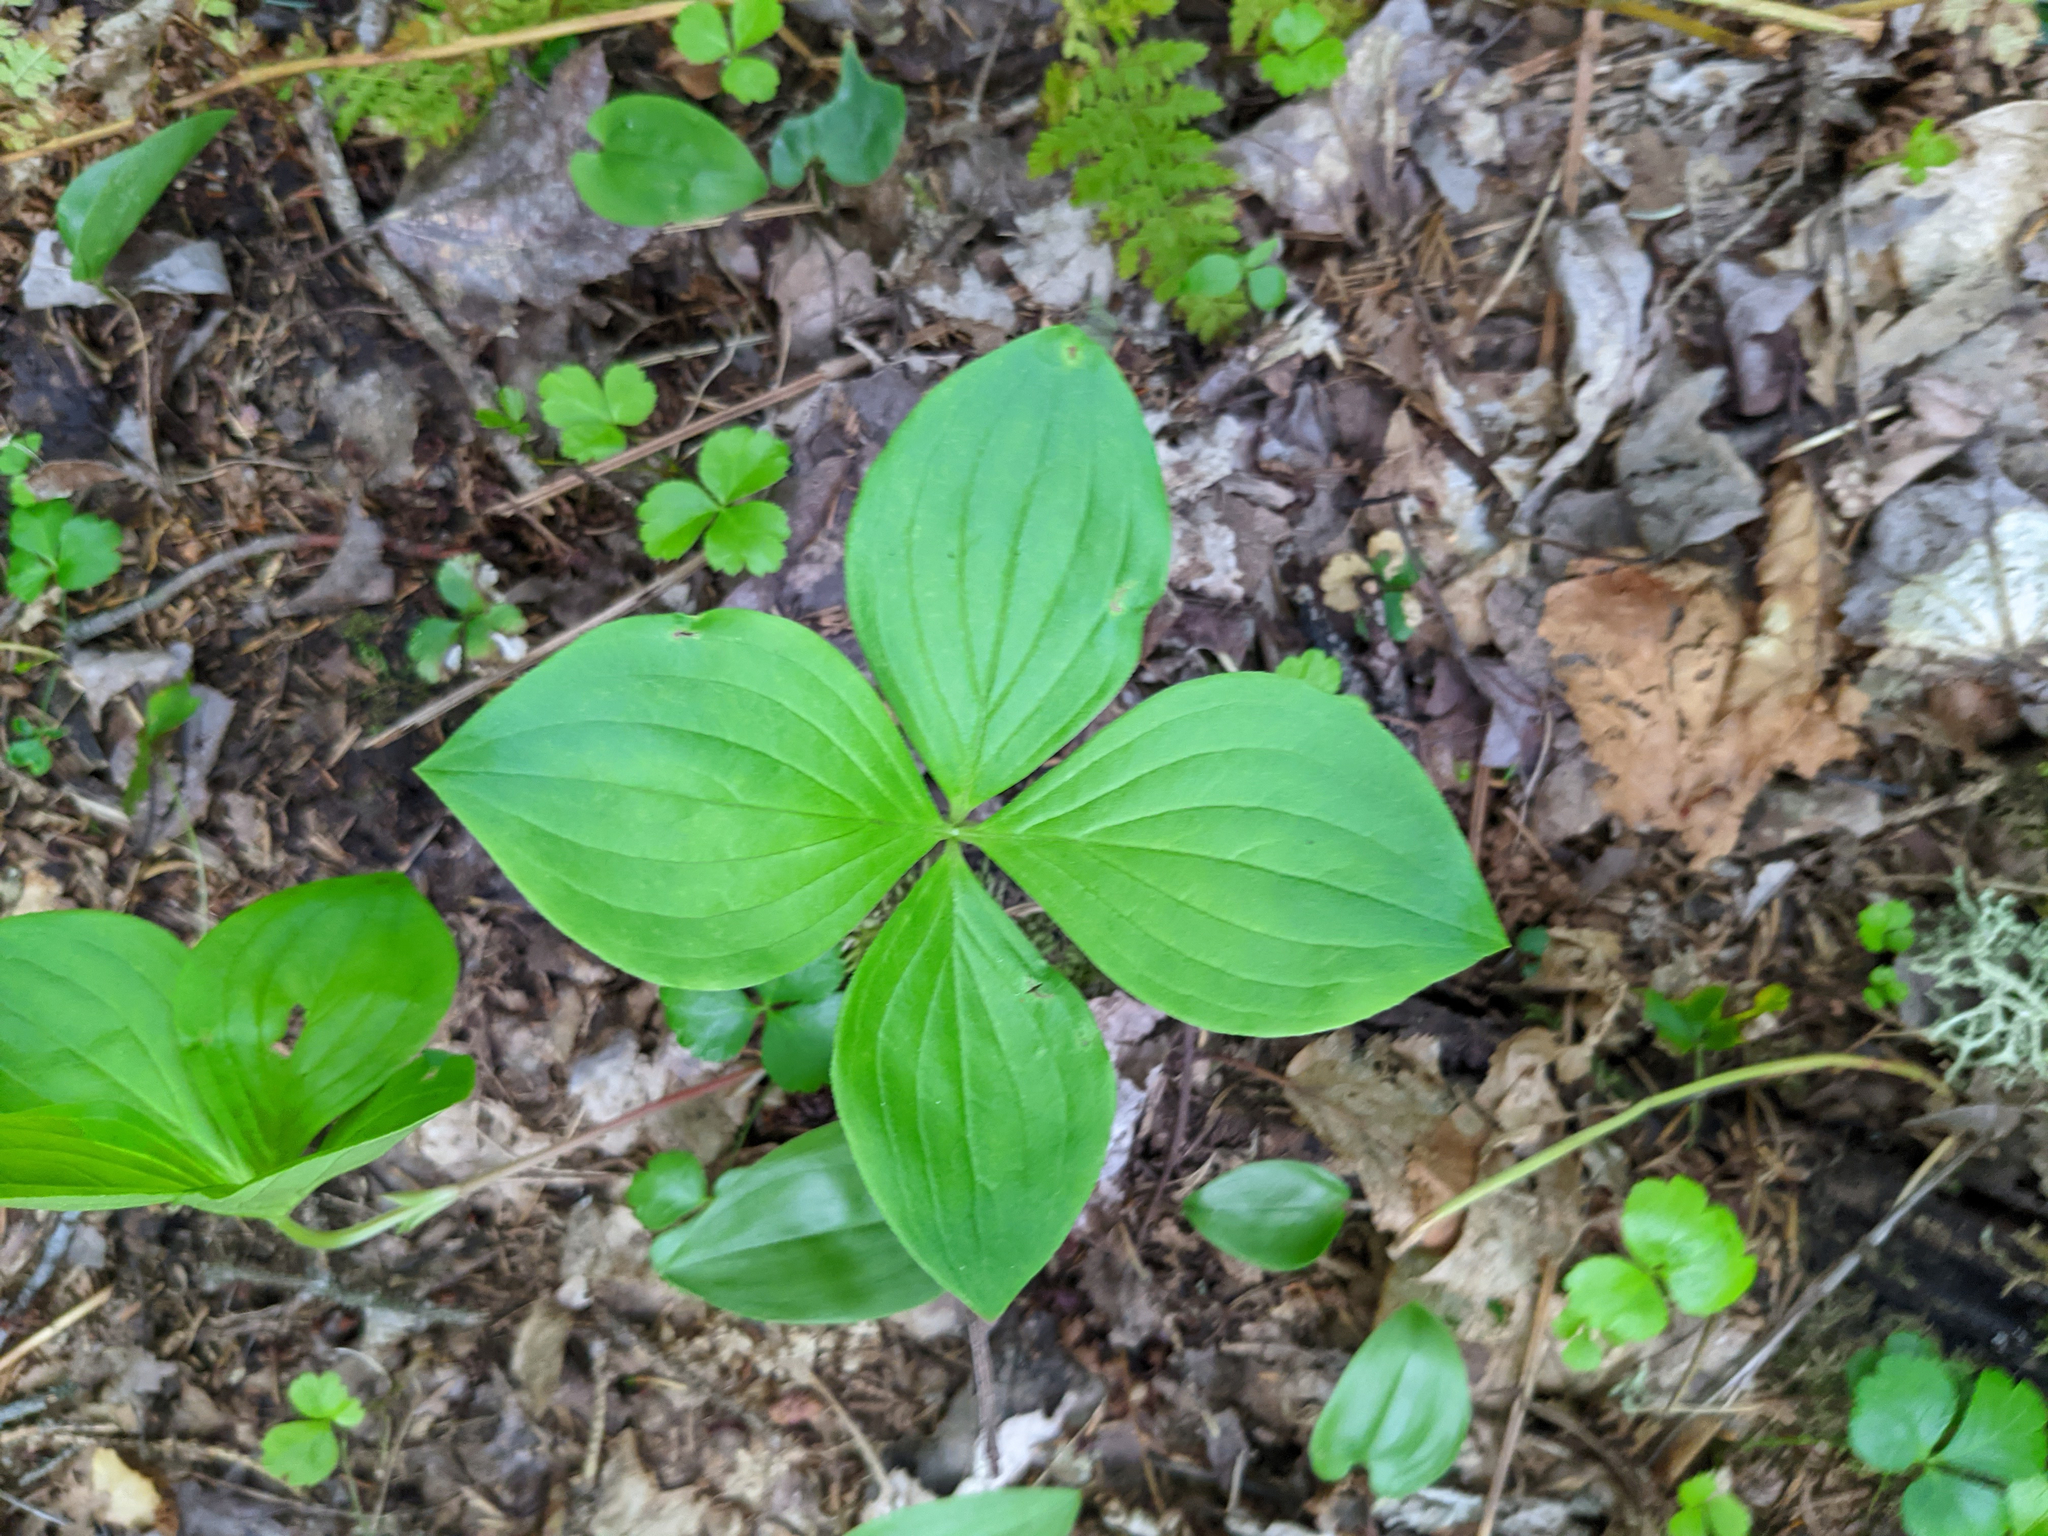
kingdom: Plantae
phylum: Tracheophyta
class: Magnoliopsida
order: Cornales
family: Cornaceae
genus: Cornus
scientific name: Cornus canadensis
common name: Creeping dogwood
